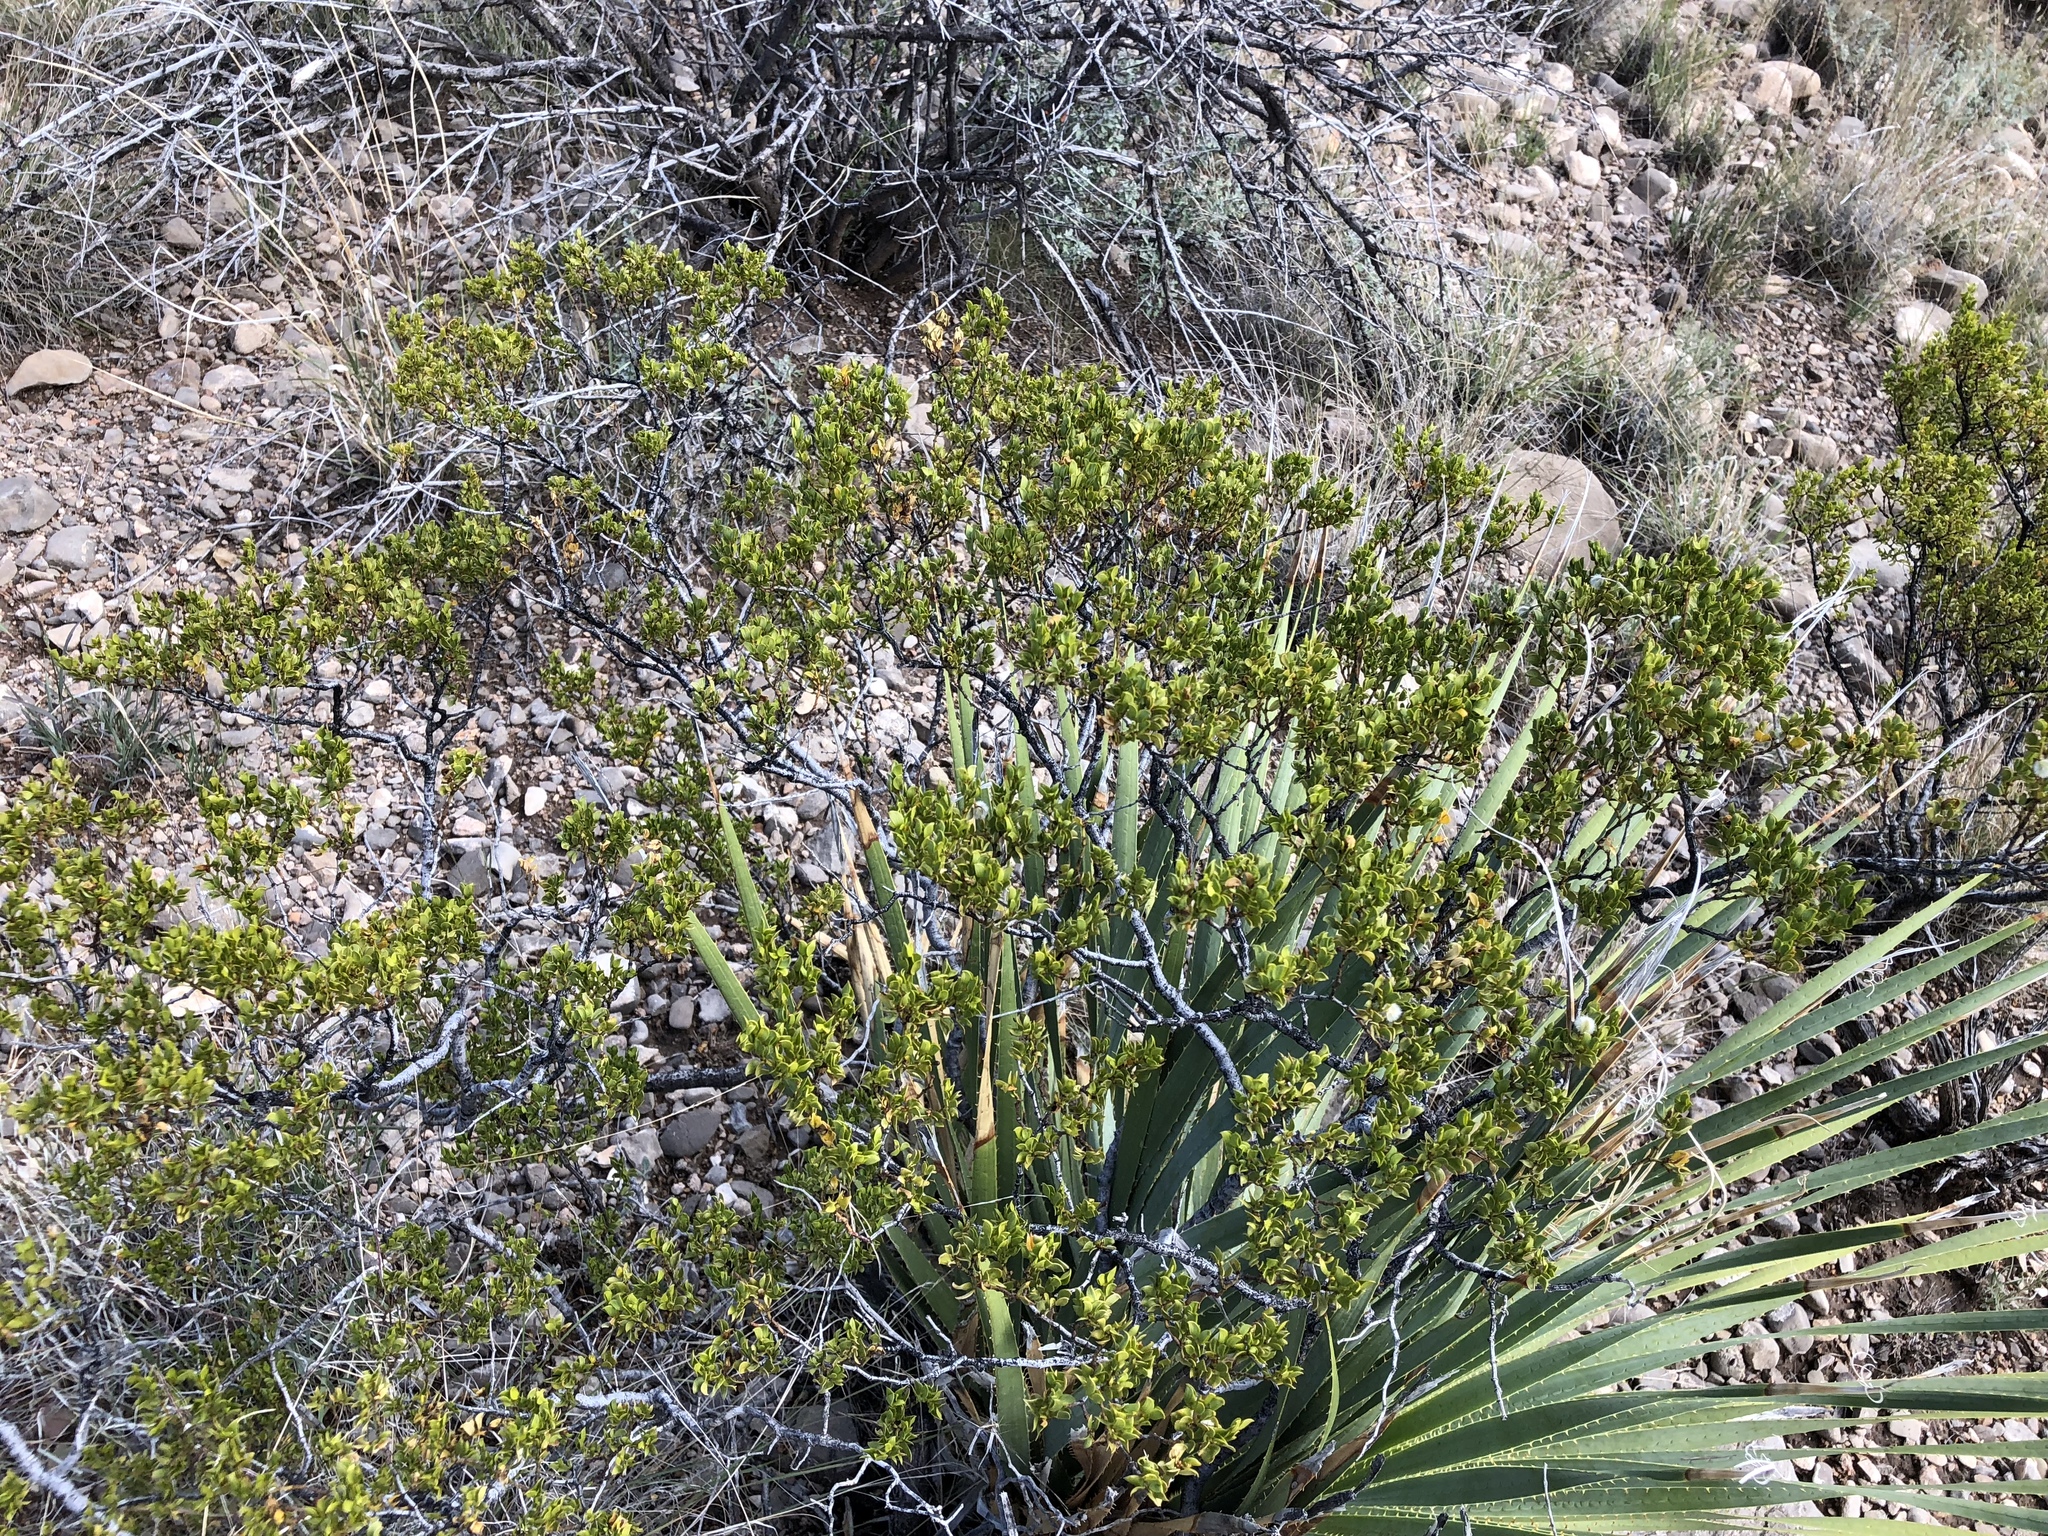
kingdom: Plantae
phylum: Tracheophyta
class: Magnoliopsida
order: Zygophyllales
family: Zygophyllaceae
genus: Larrea
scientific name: Larrea tridentata
